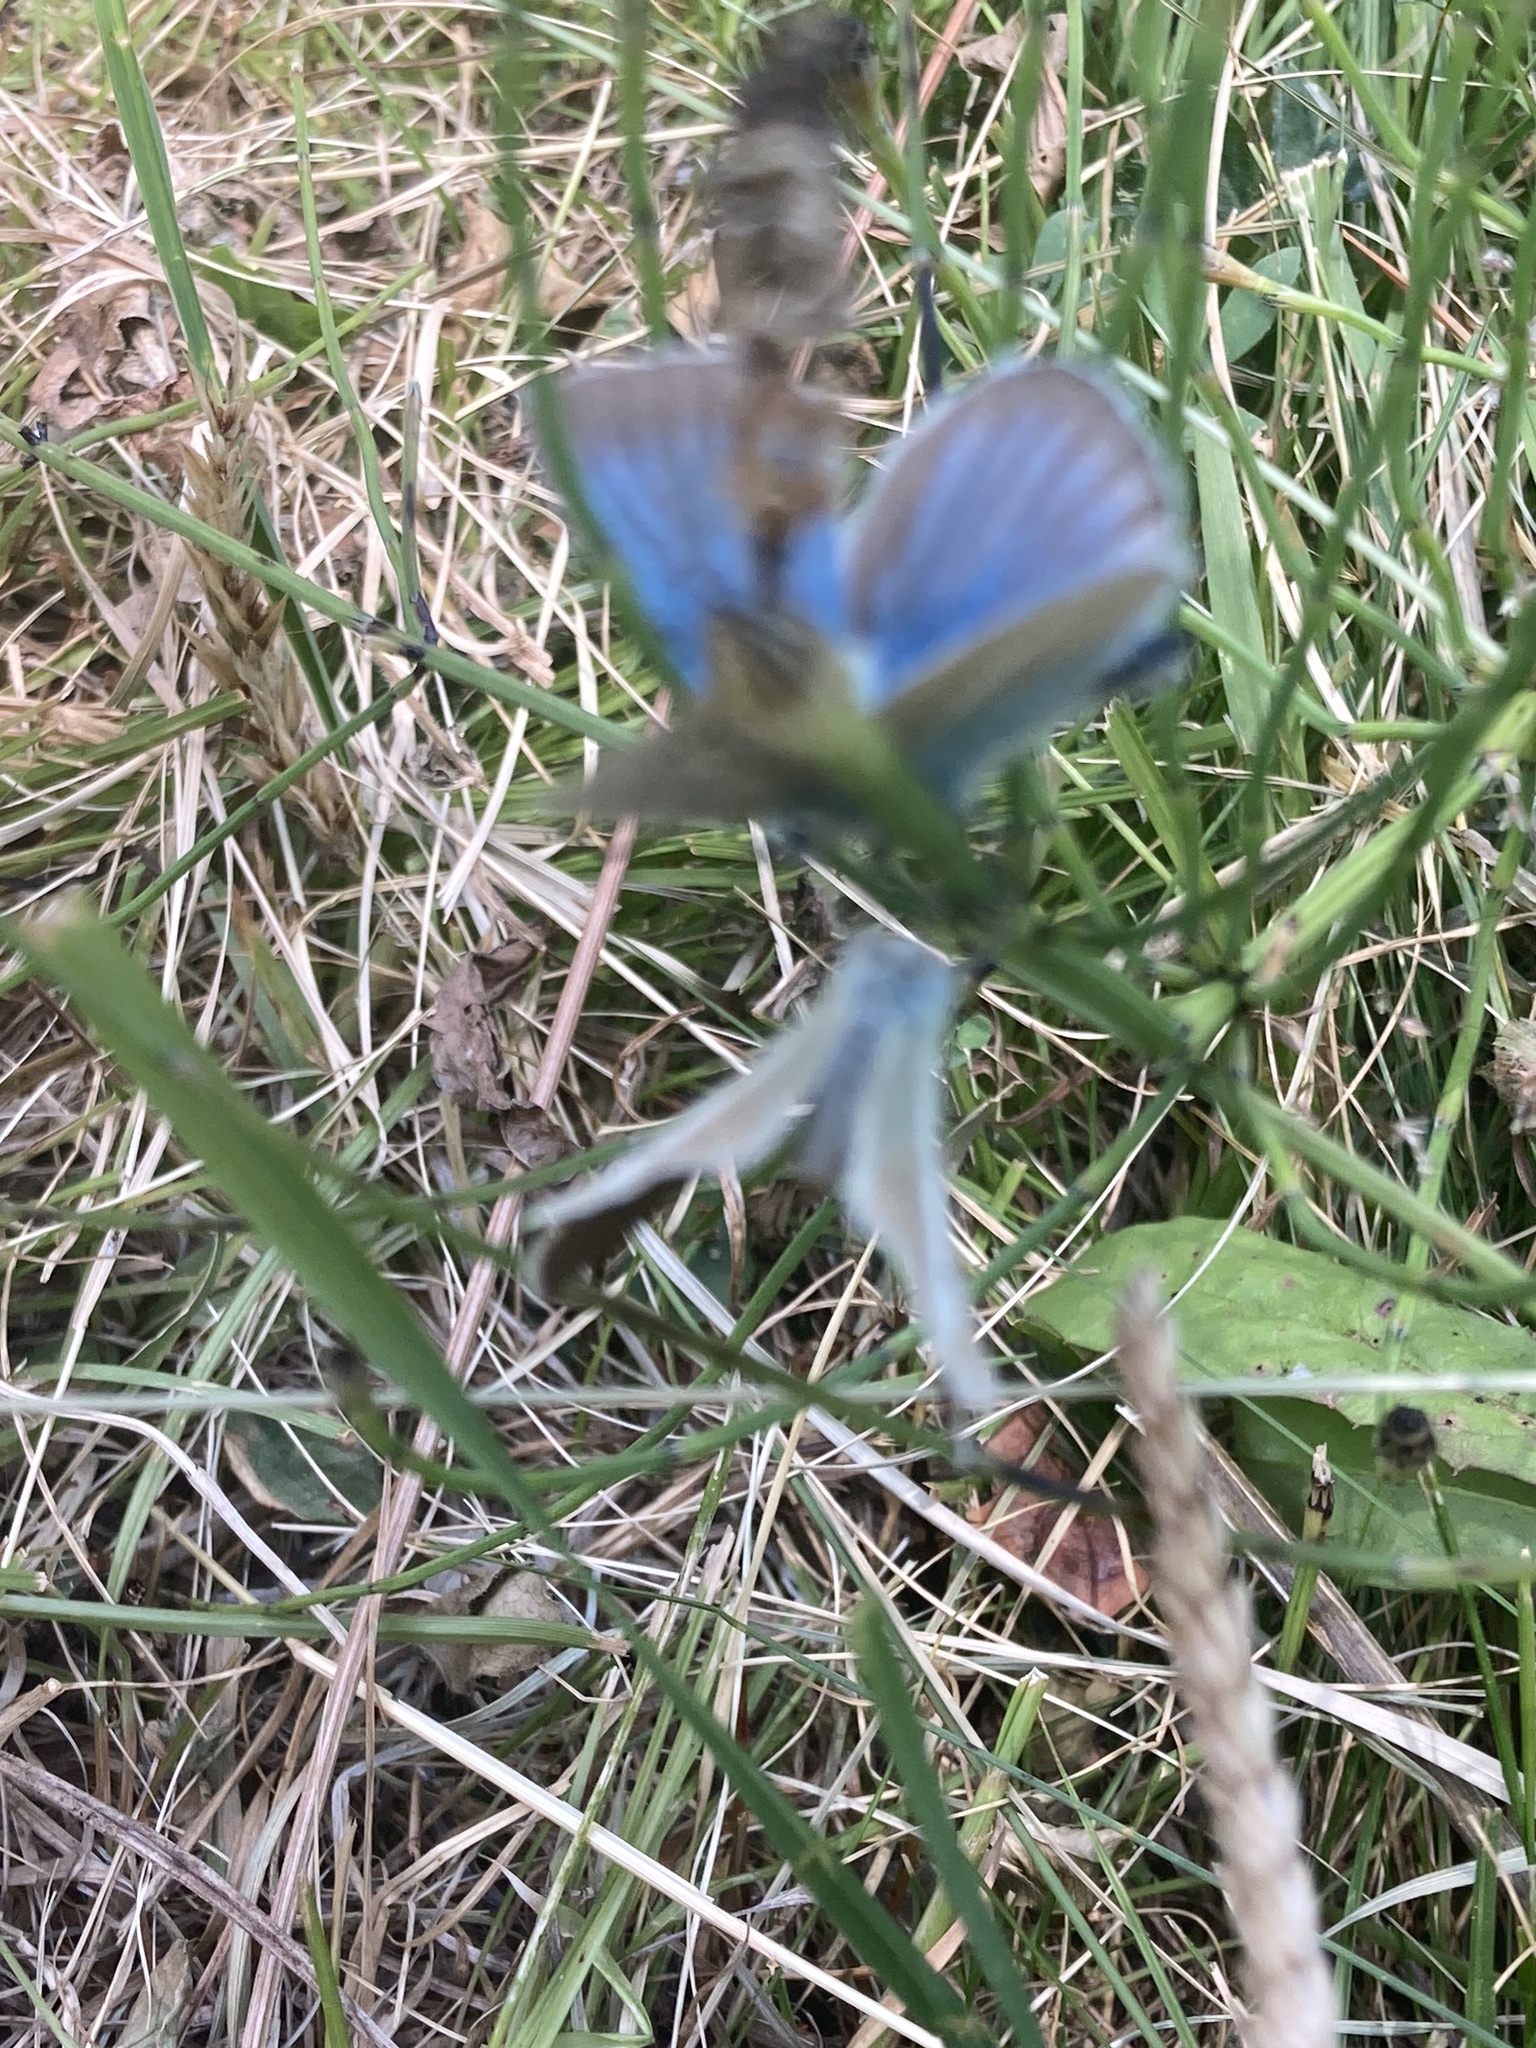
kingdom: Animalia
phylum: Arthropoda
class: Insecta
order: Lepidoptera
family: Lycaenidae
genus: Agrodiaetus
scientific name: Agrodiaetus damon
